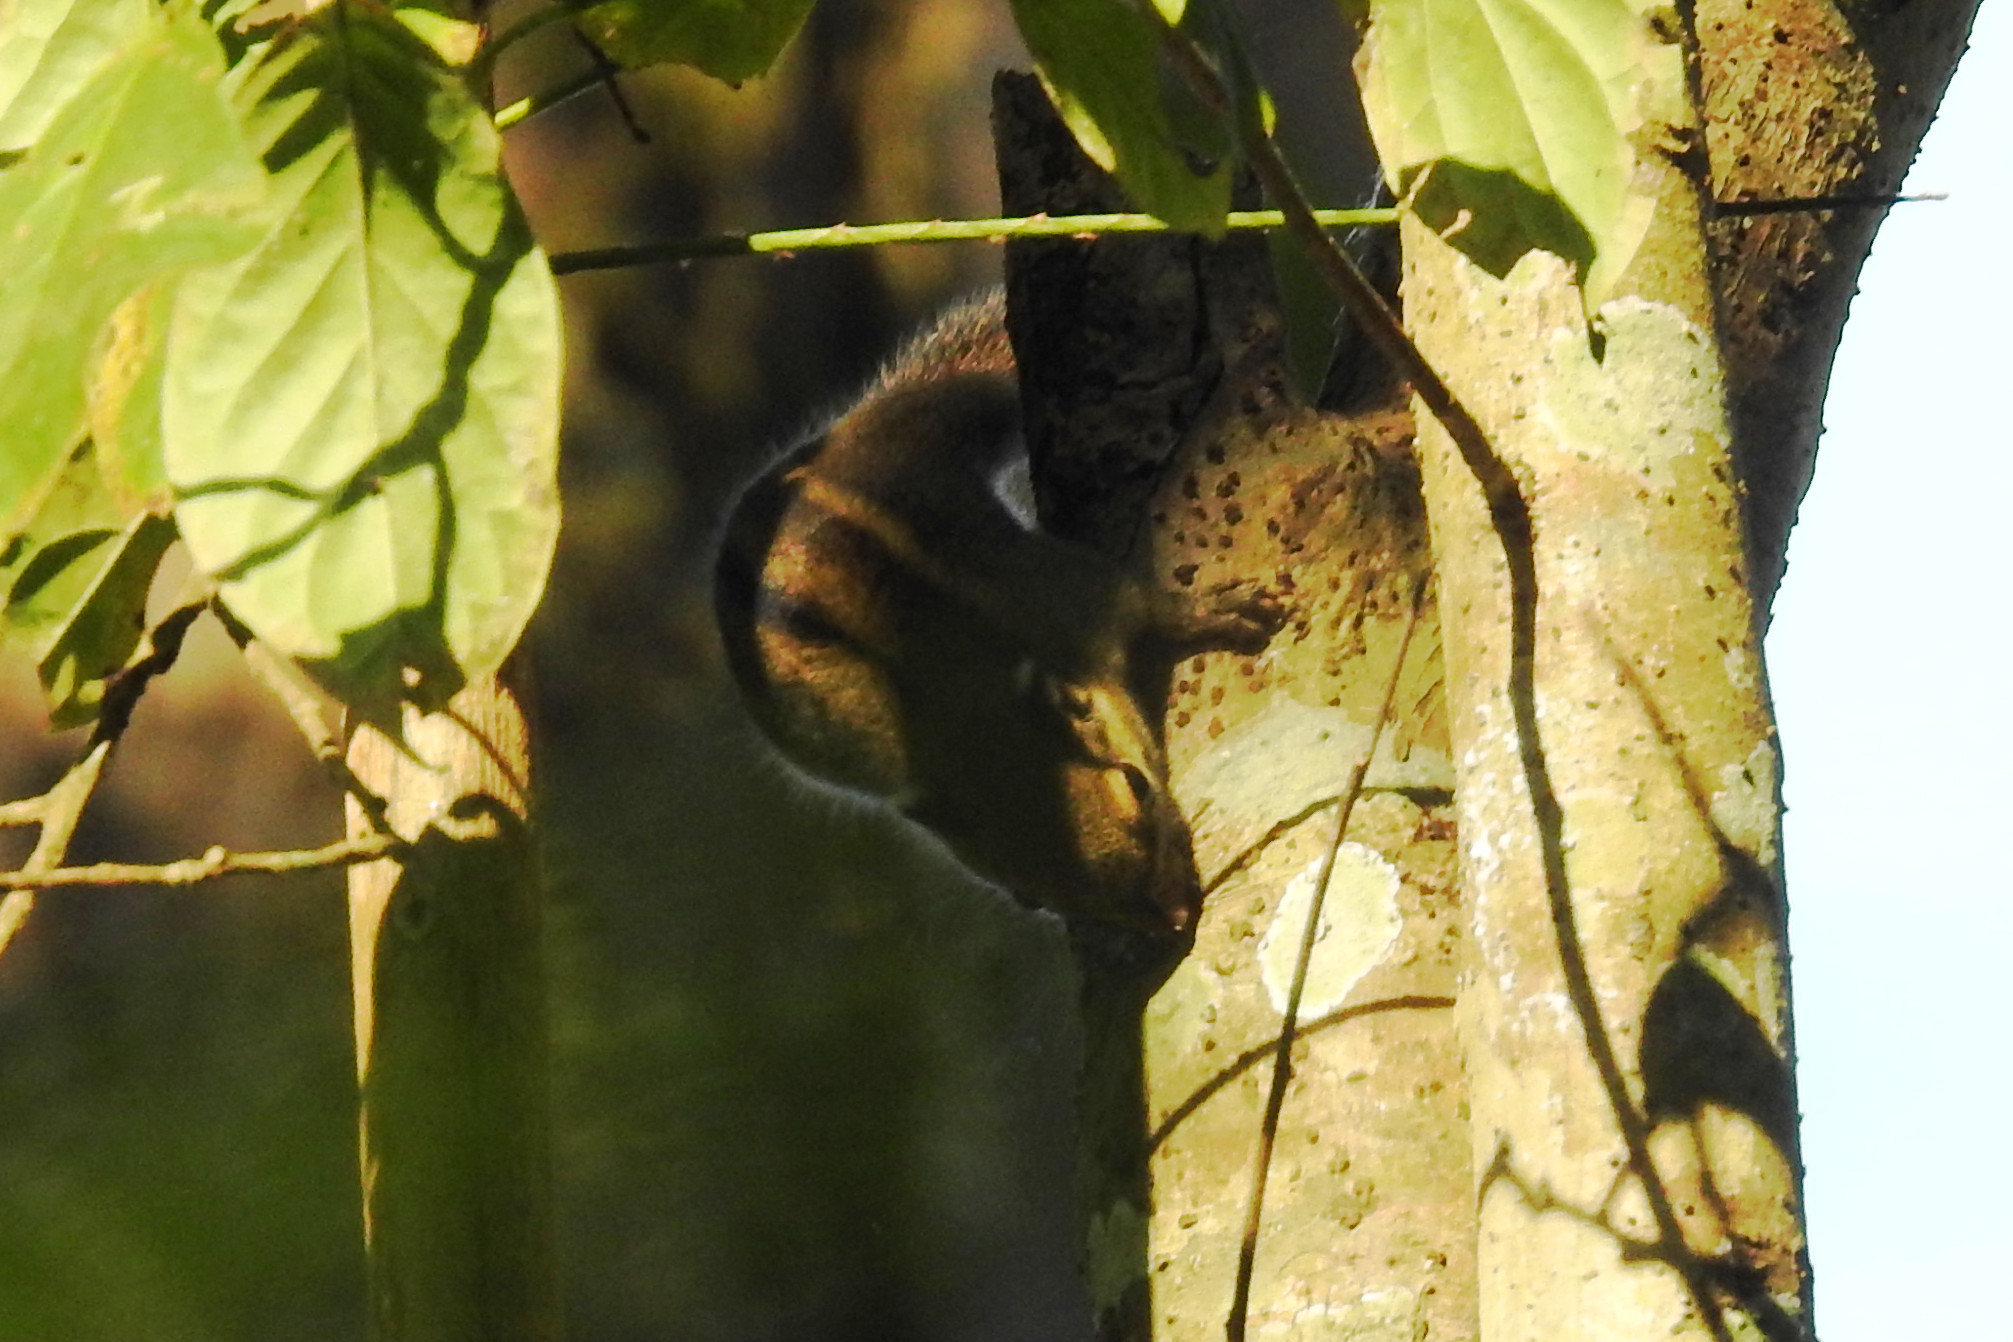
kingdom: Animalia
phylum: Chordata
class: Mammalia
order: Rodentia
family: Sciuridae
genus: Tamiops
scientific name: Tamiops mcclellandii
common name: Himalayan striped squirrel
